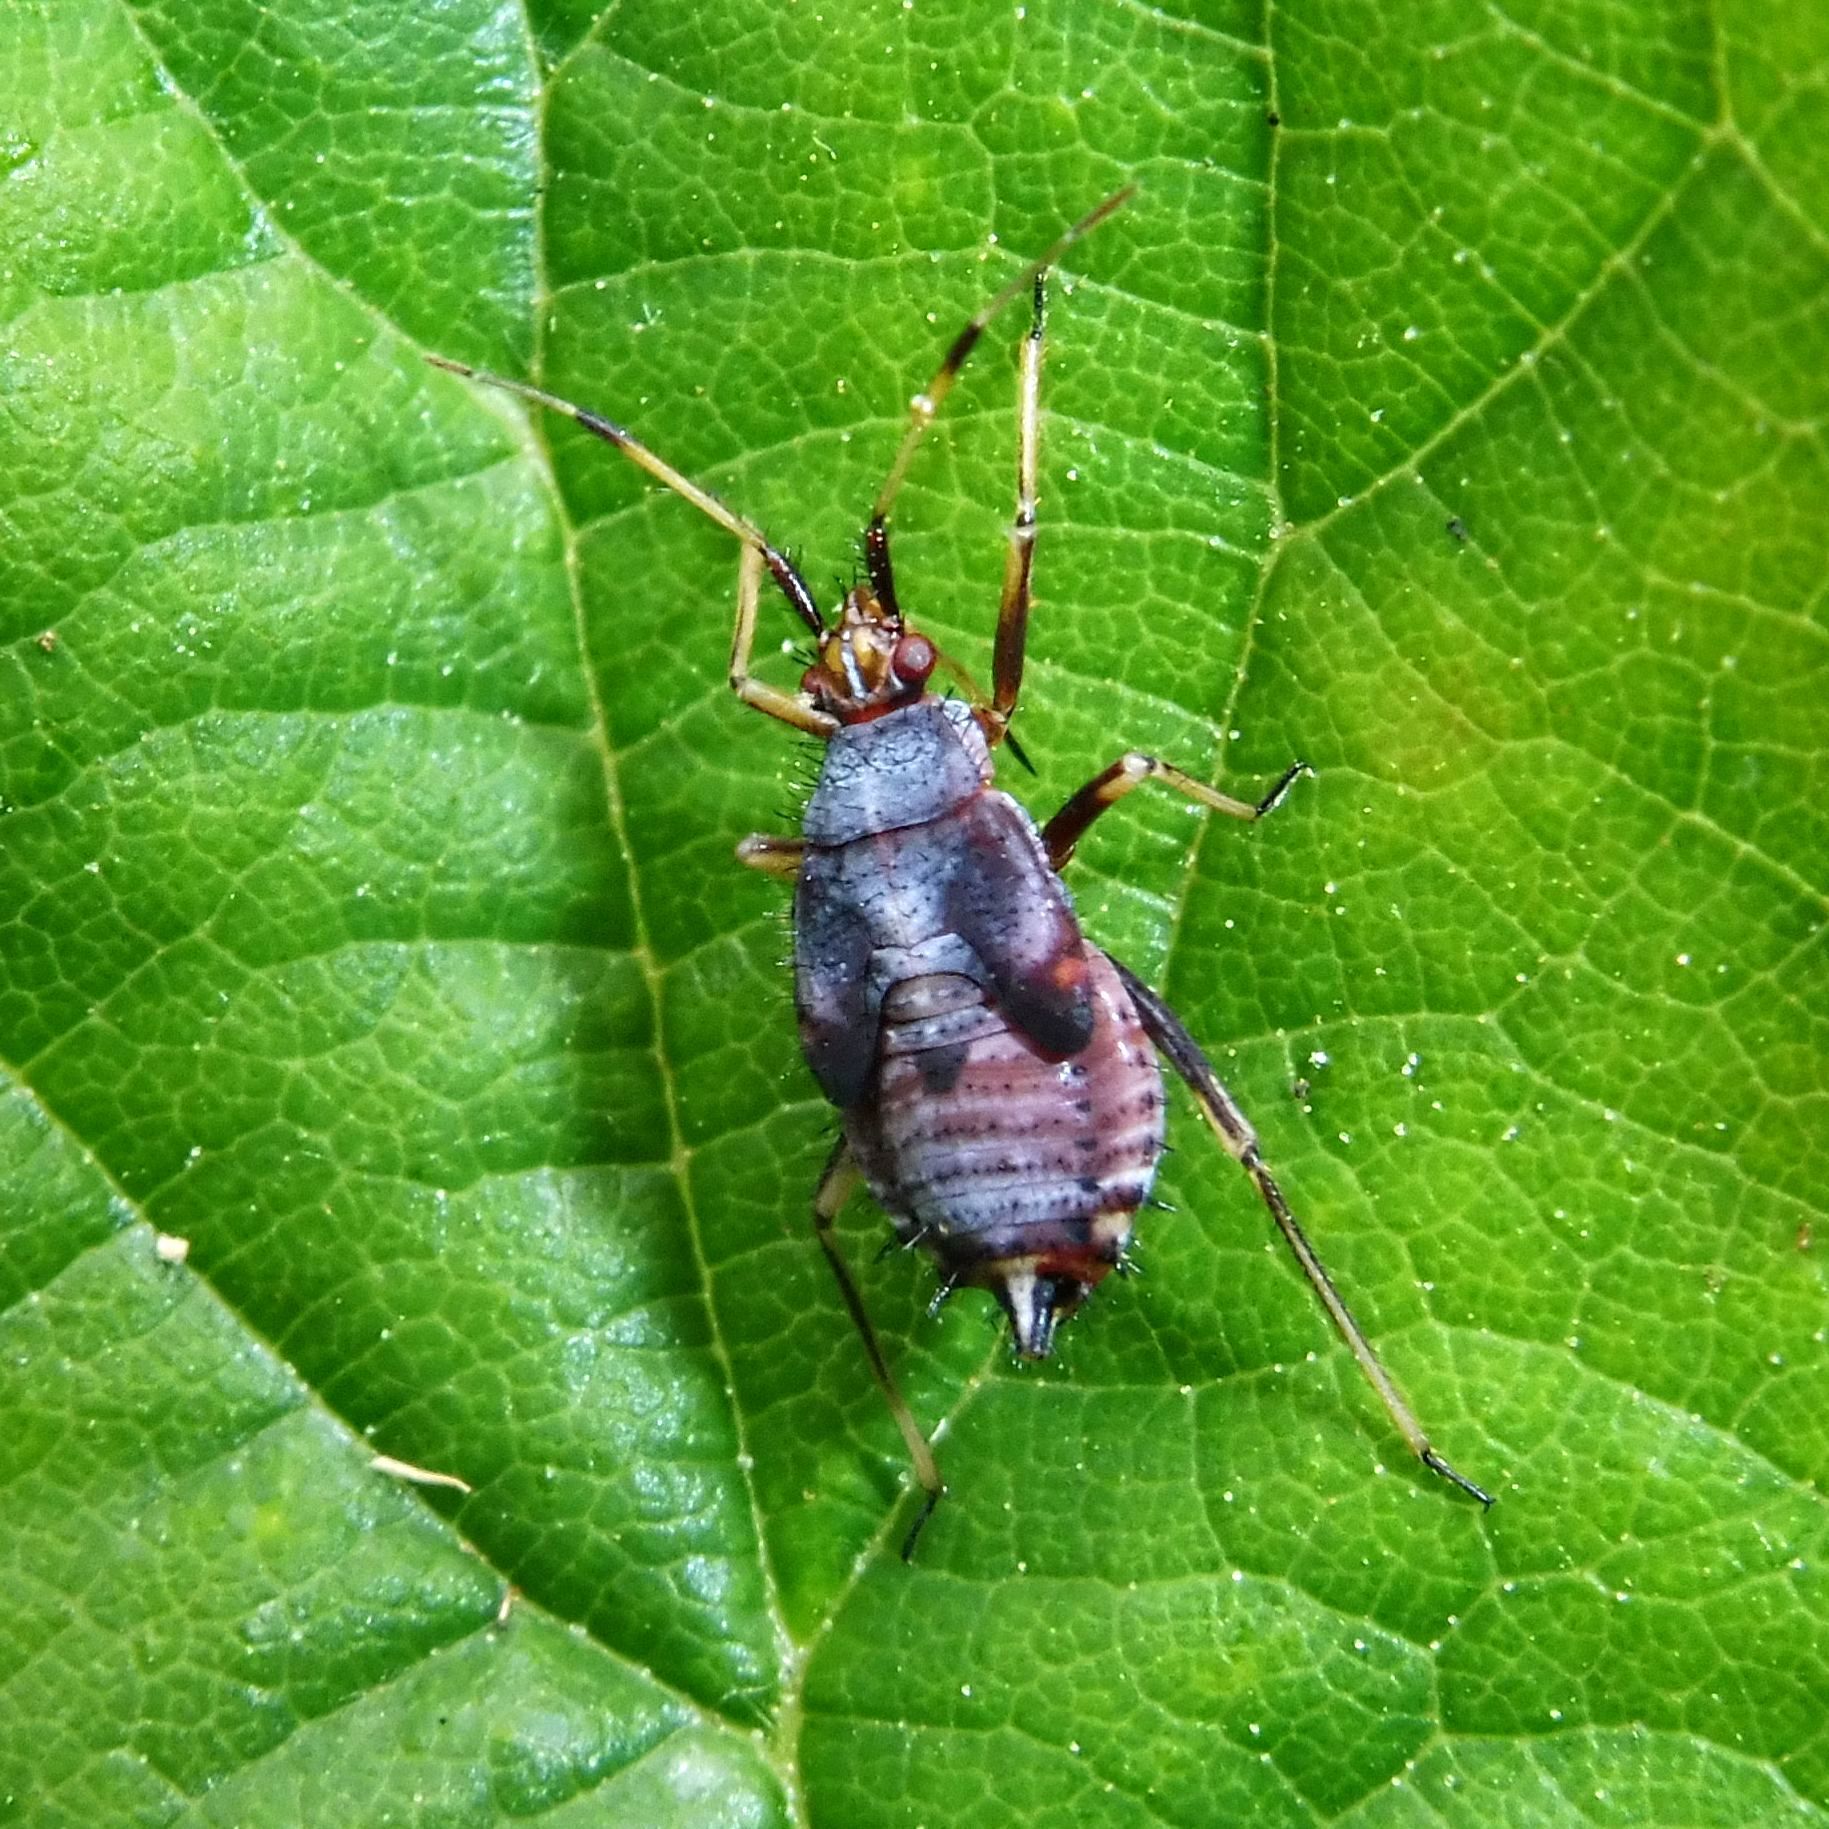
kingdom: Animalia
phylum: Arthropoda
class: Insecta
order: Hemiptera
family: Miridae
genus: Deraeocoris
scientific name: Deraeocoris ruber
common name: Plant bug
